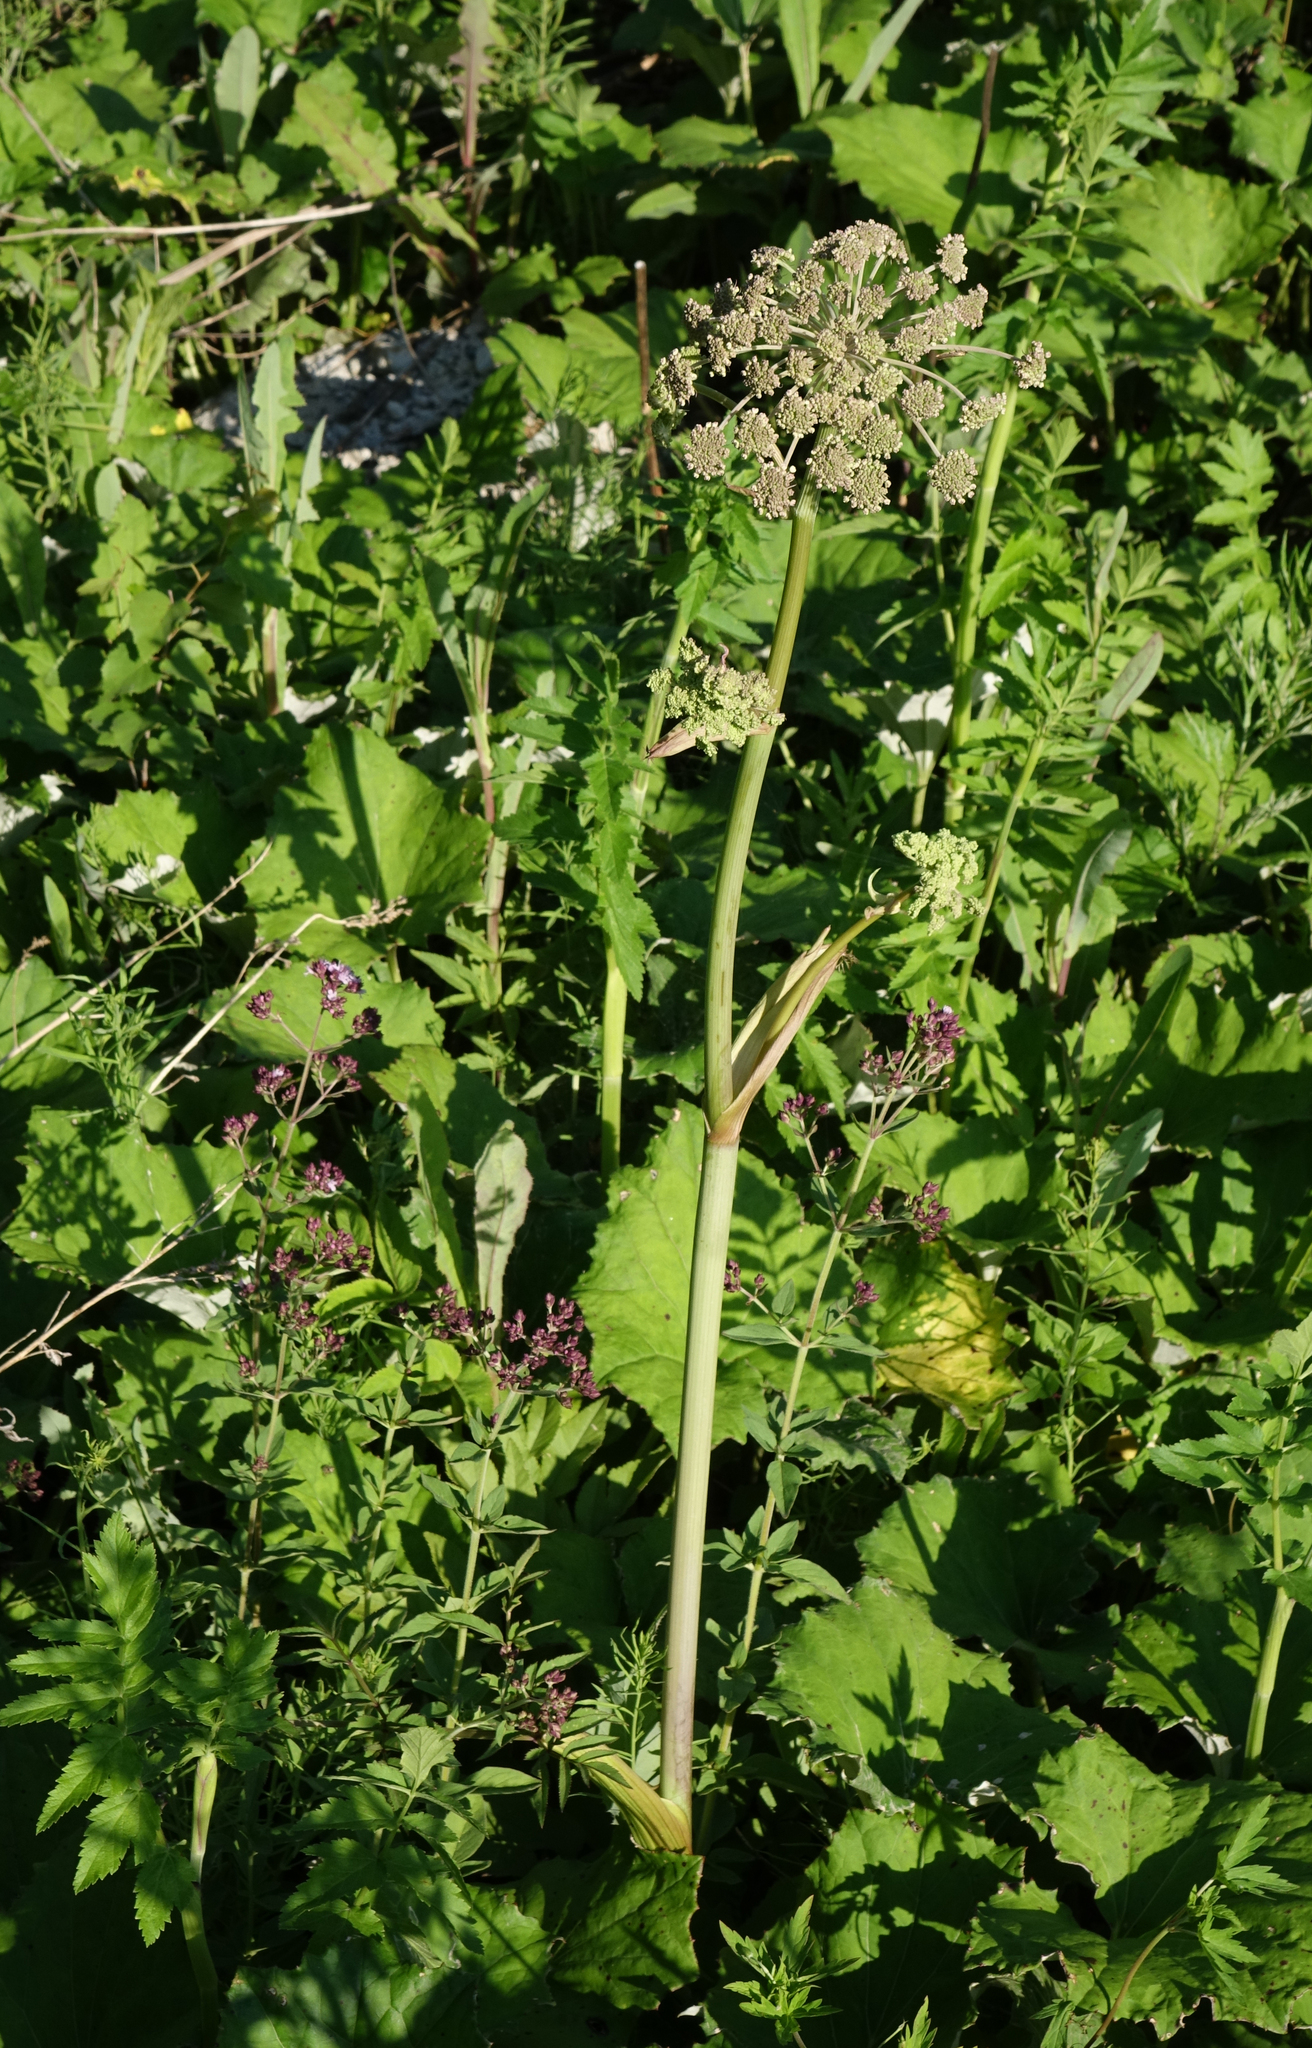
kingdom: Plantae
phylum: Tracheophyta
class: Magnoliopsida
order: Apiales
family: Apiaceae
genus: Angelica
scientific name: Angelica sylvestris
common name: Wild angelica
